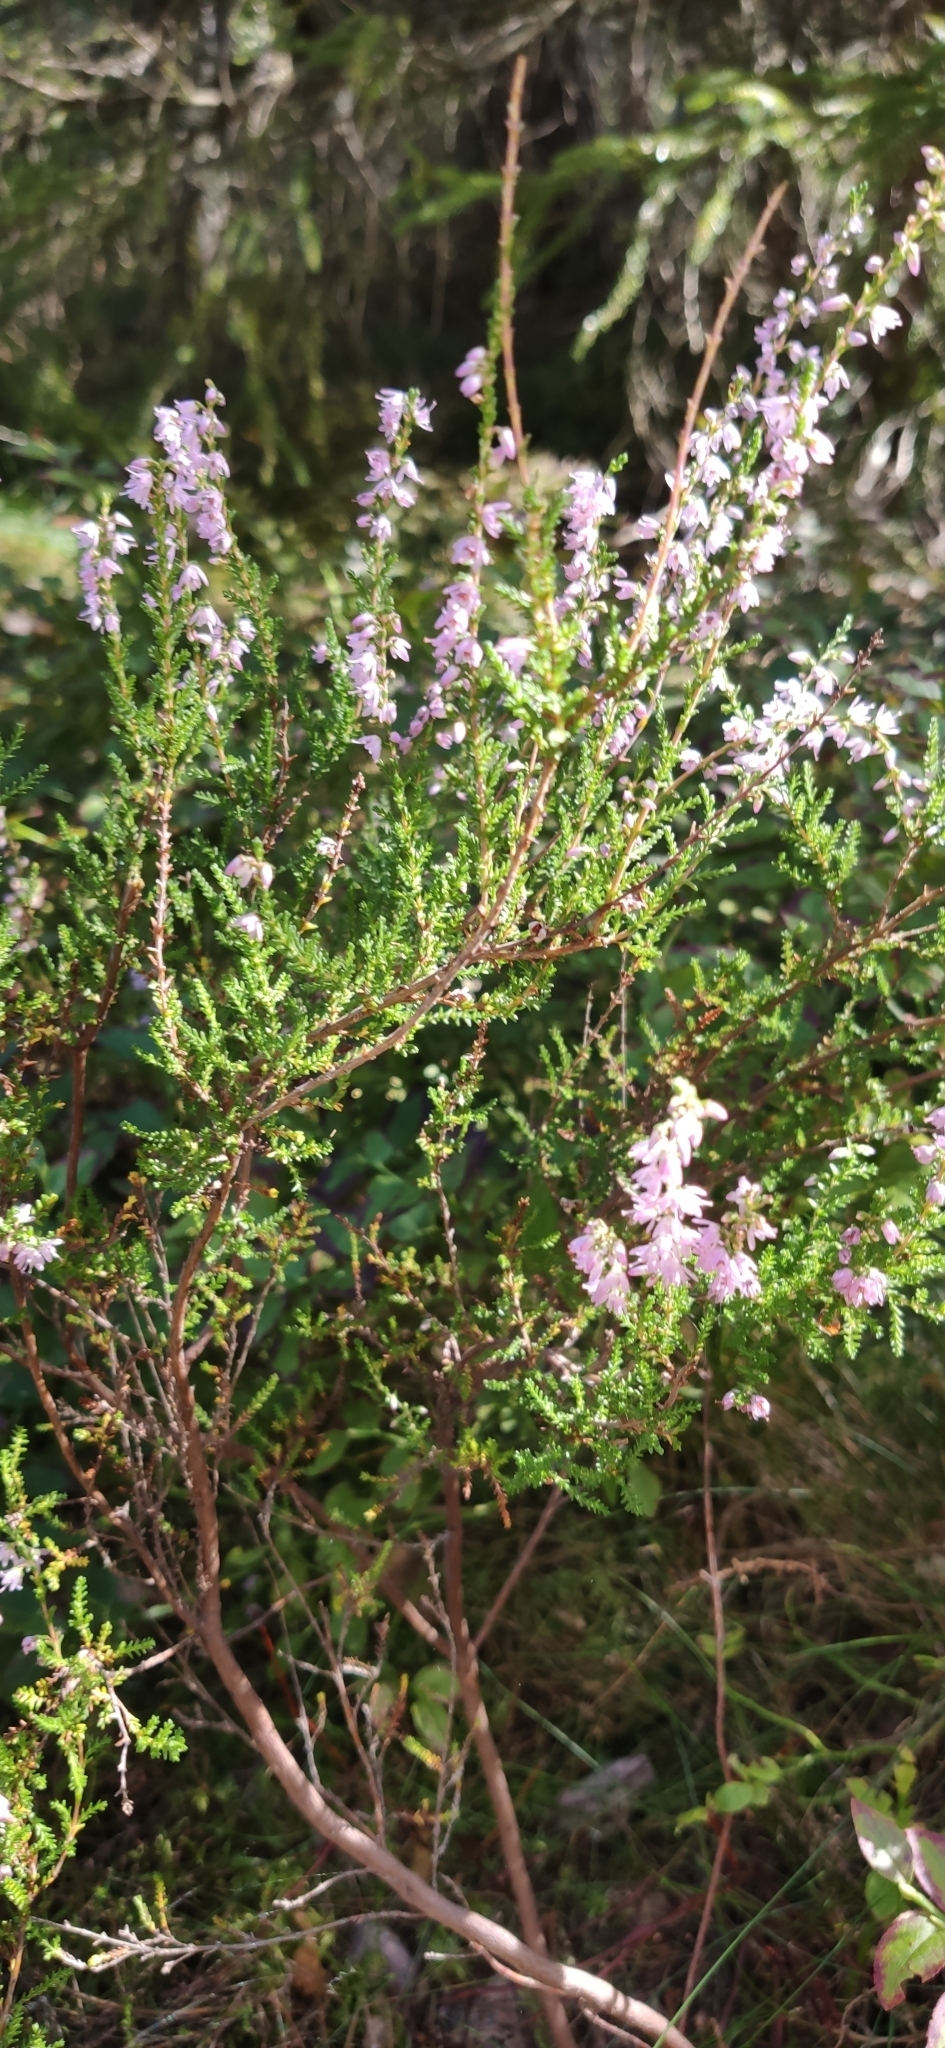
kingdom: Plantae
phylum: Tracheophyta
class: Magnoliopsida
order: Ericales
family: Ericaceae
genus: Calluna
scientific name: Calluna vulgaris
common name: Heather
